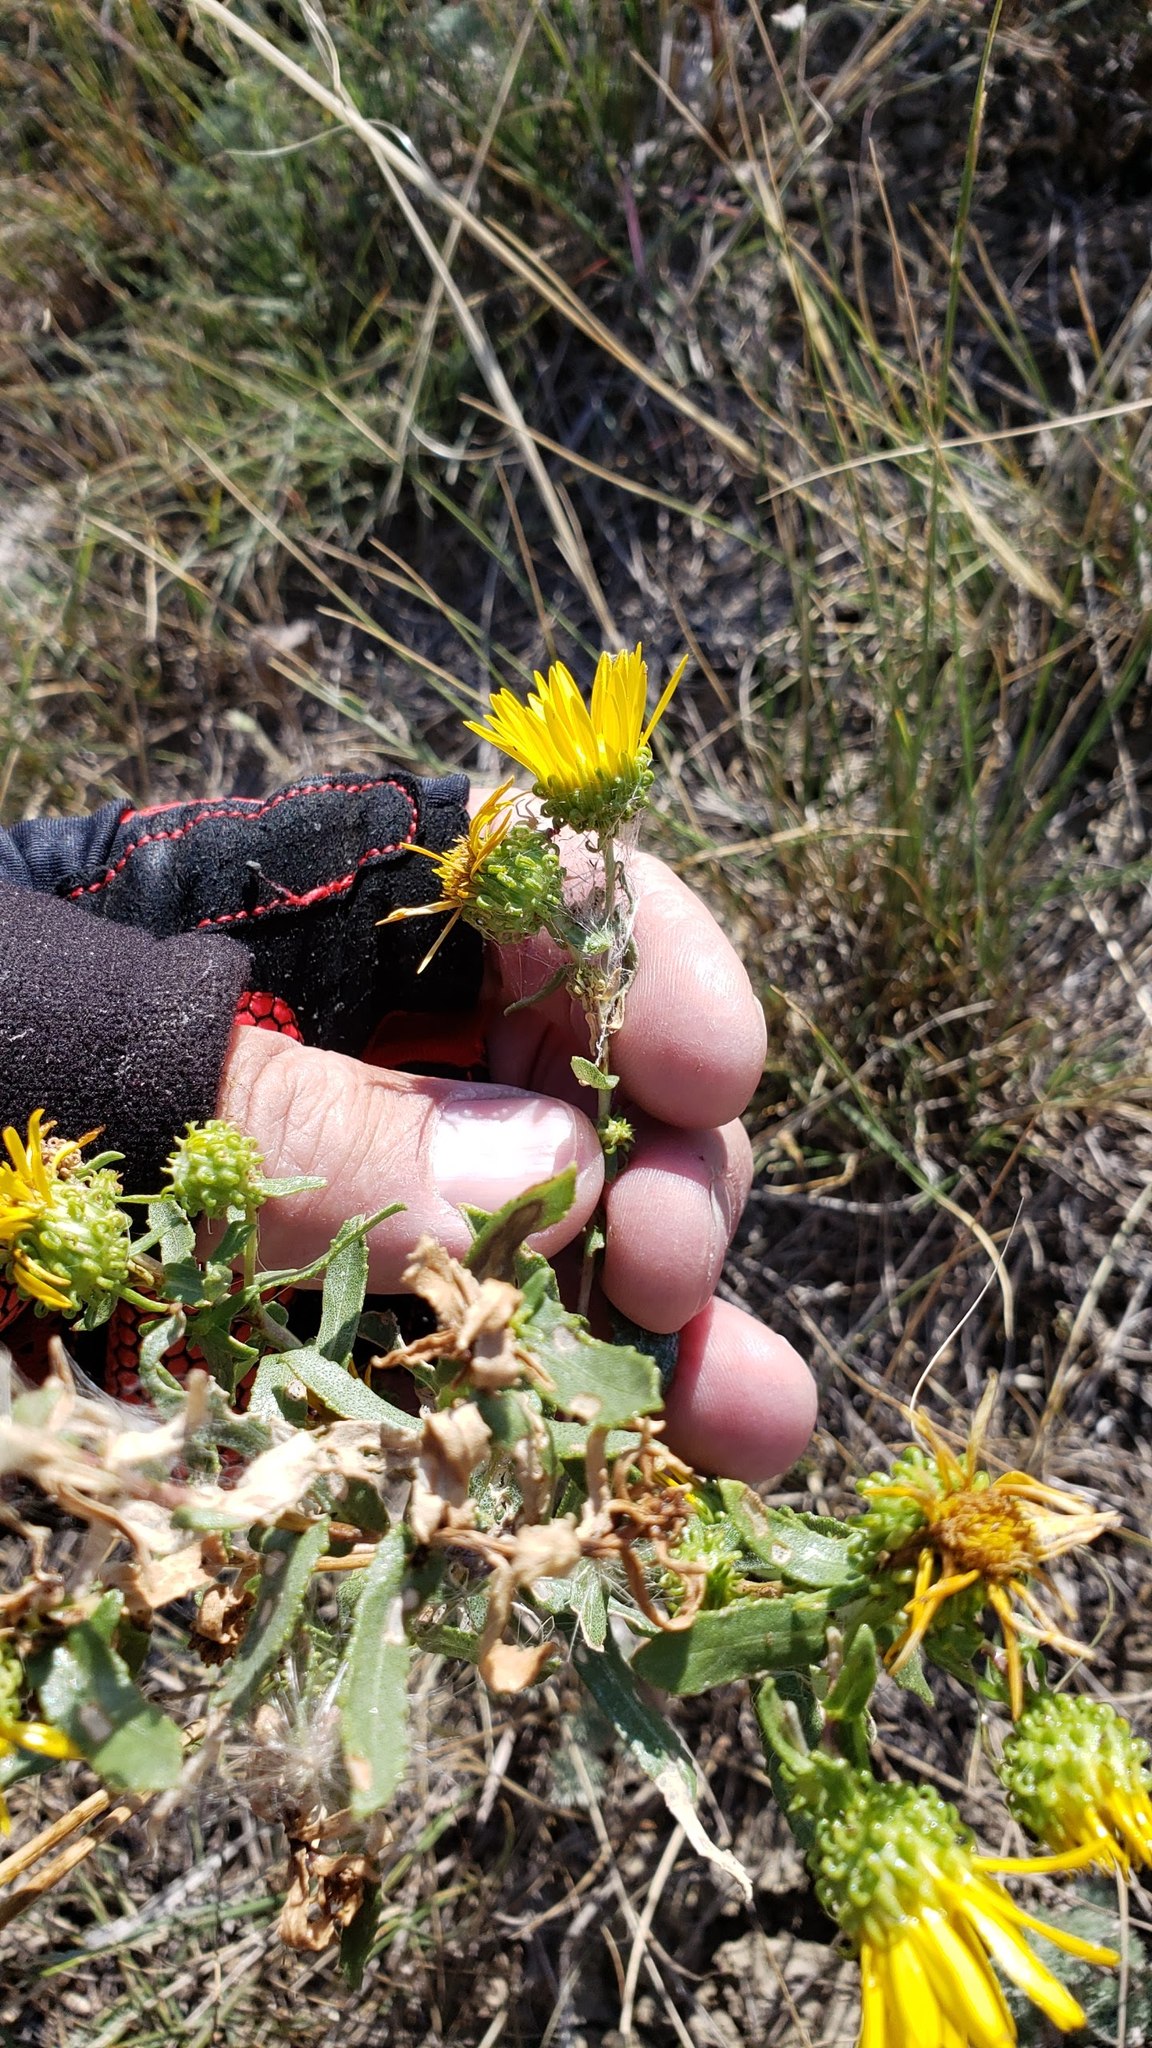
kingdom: Plantae
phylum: Tracheophyta
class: Magnoliopsida
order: Asterales
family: Asteraceae
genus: Grindelia
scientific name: Grindelia squarrosa
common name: Curly-cup gumweed
